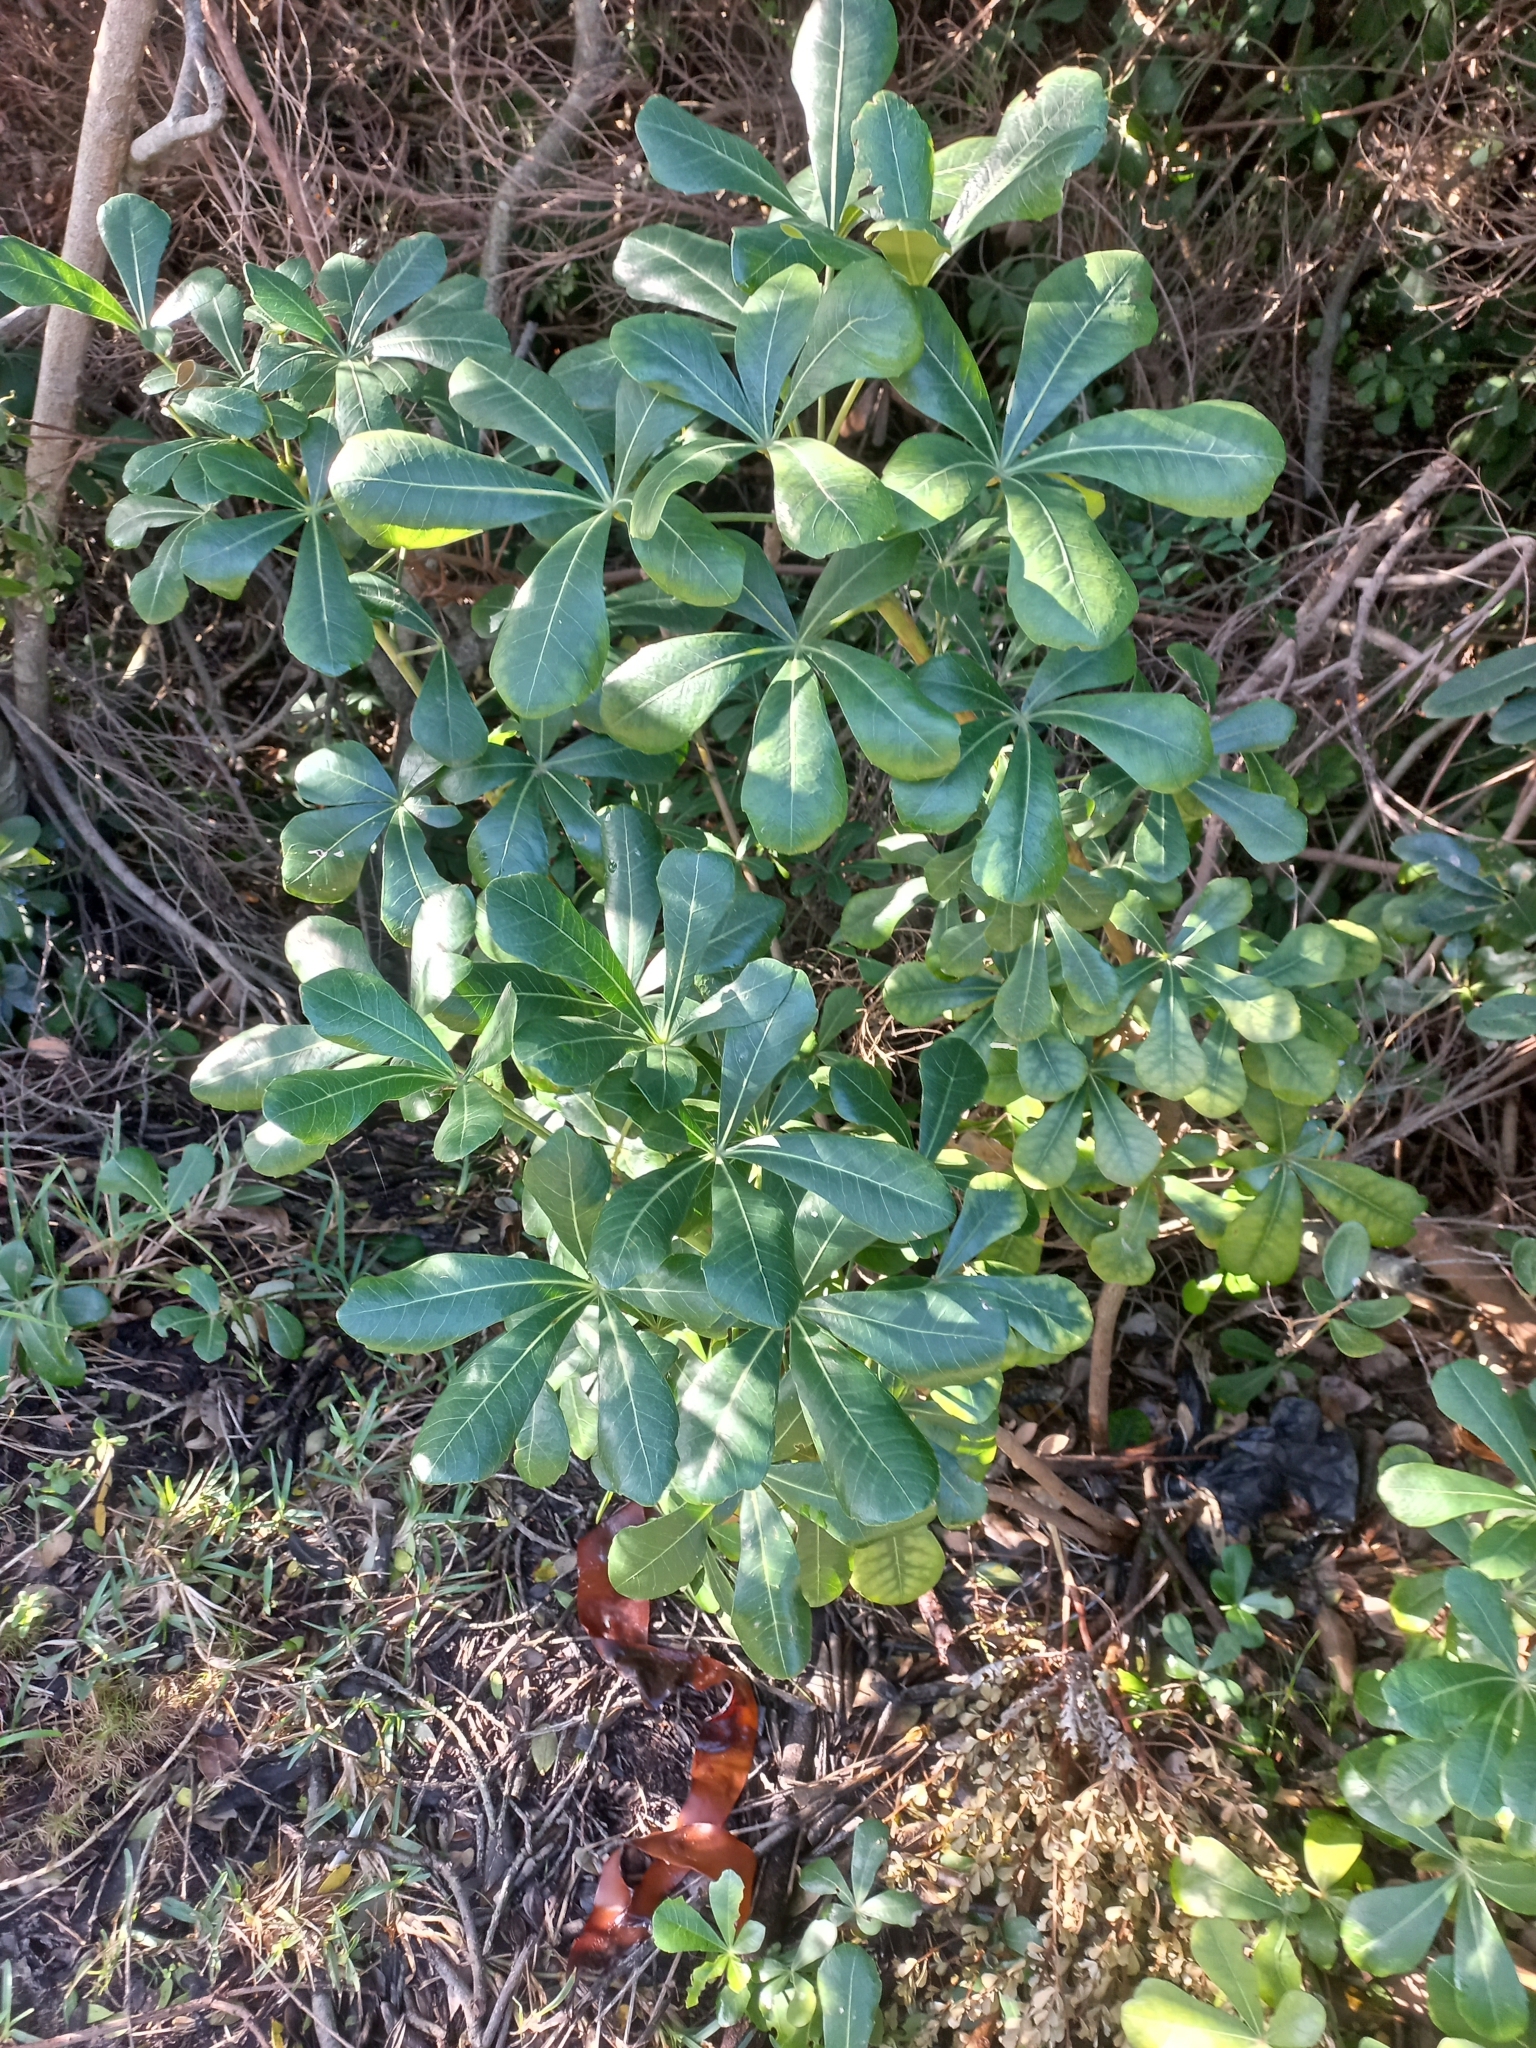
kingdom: Plantae
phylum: Tracheophyta
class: Magnoliopsida
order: Apiales
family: Araliaceae
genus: Cussonia
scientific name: Cussonia thyrsiflora
